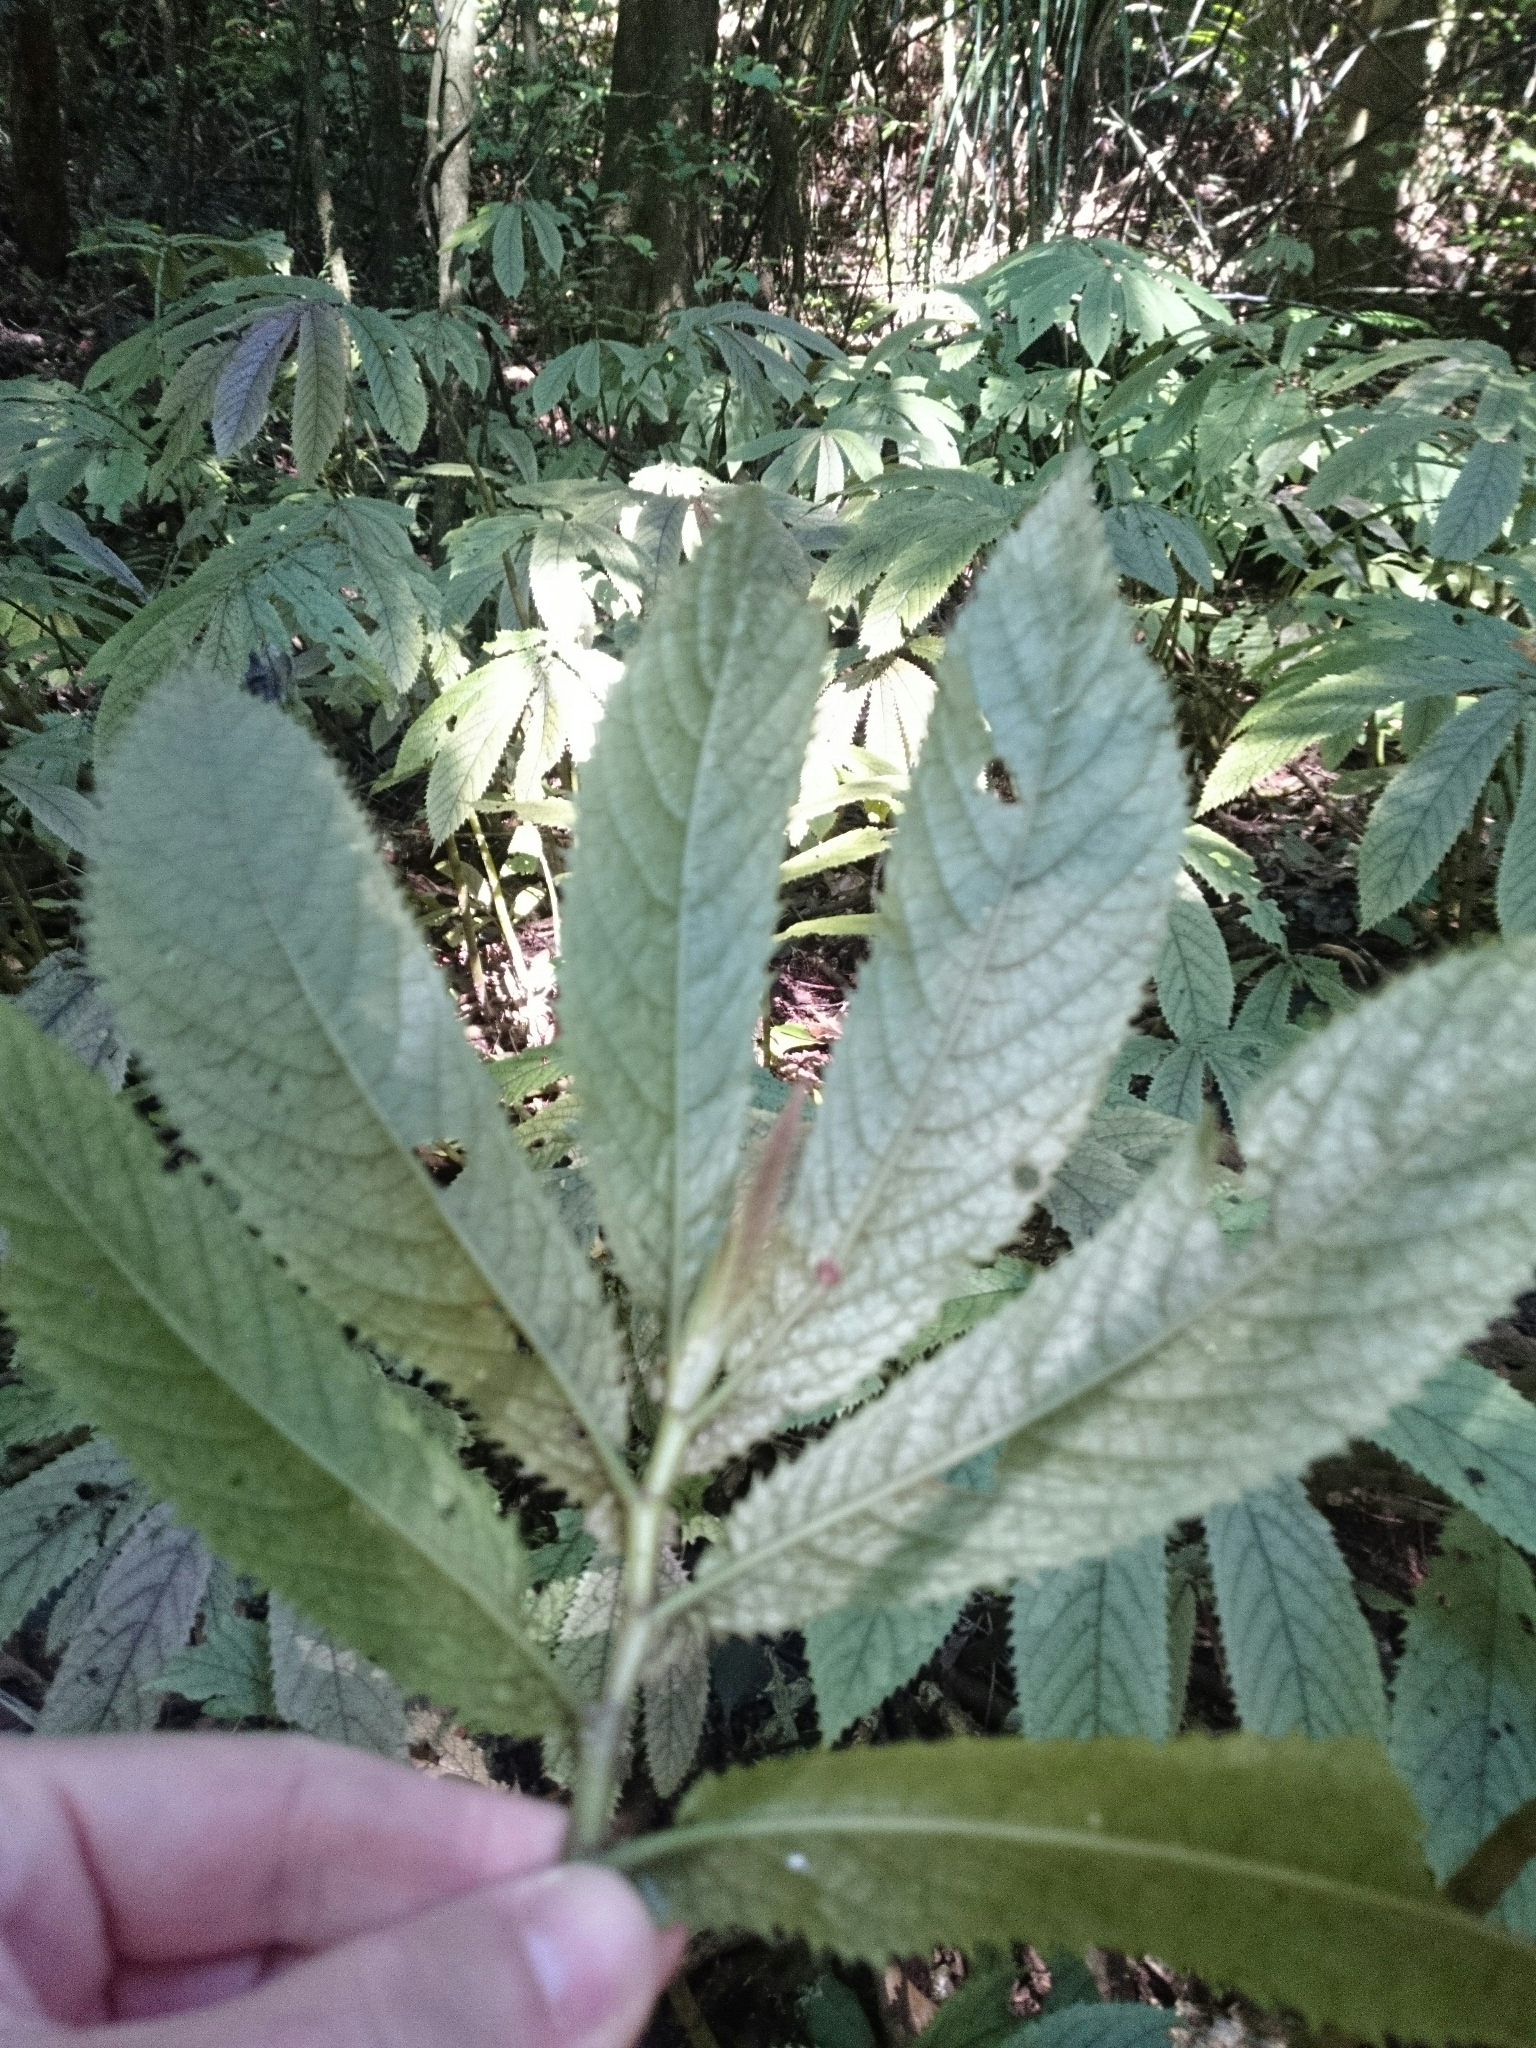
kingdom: Plantae
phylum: Tracheophyta
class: Magnoliopsida
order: Rosales
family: Urticaceae
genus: Elatostema
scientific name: Elatostema rugosum
